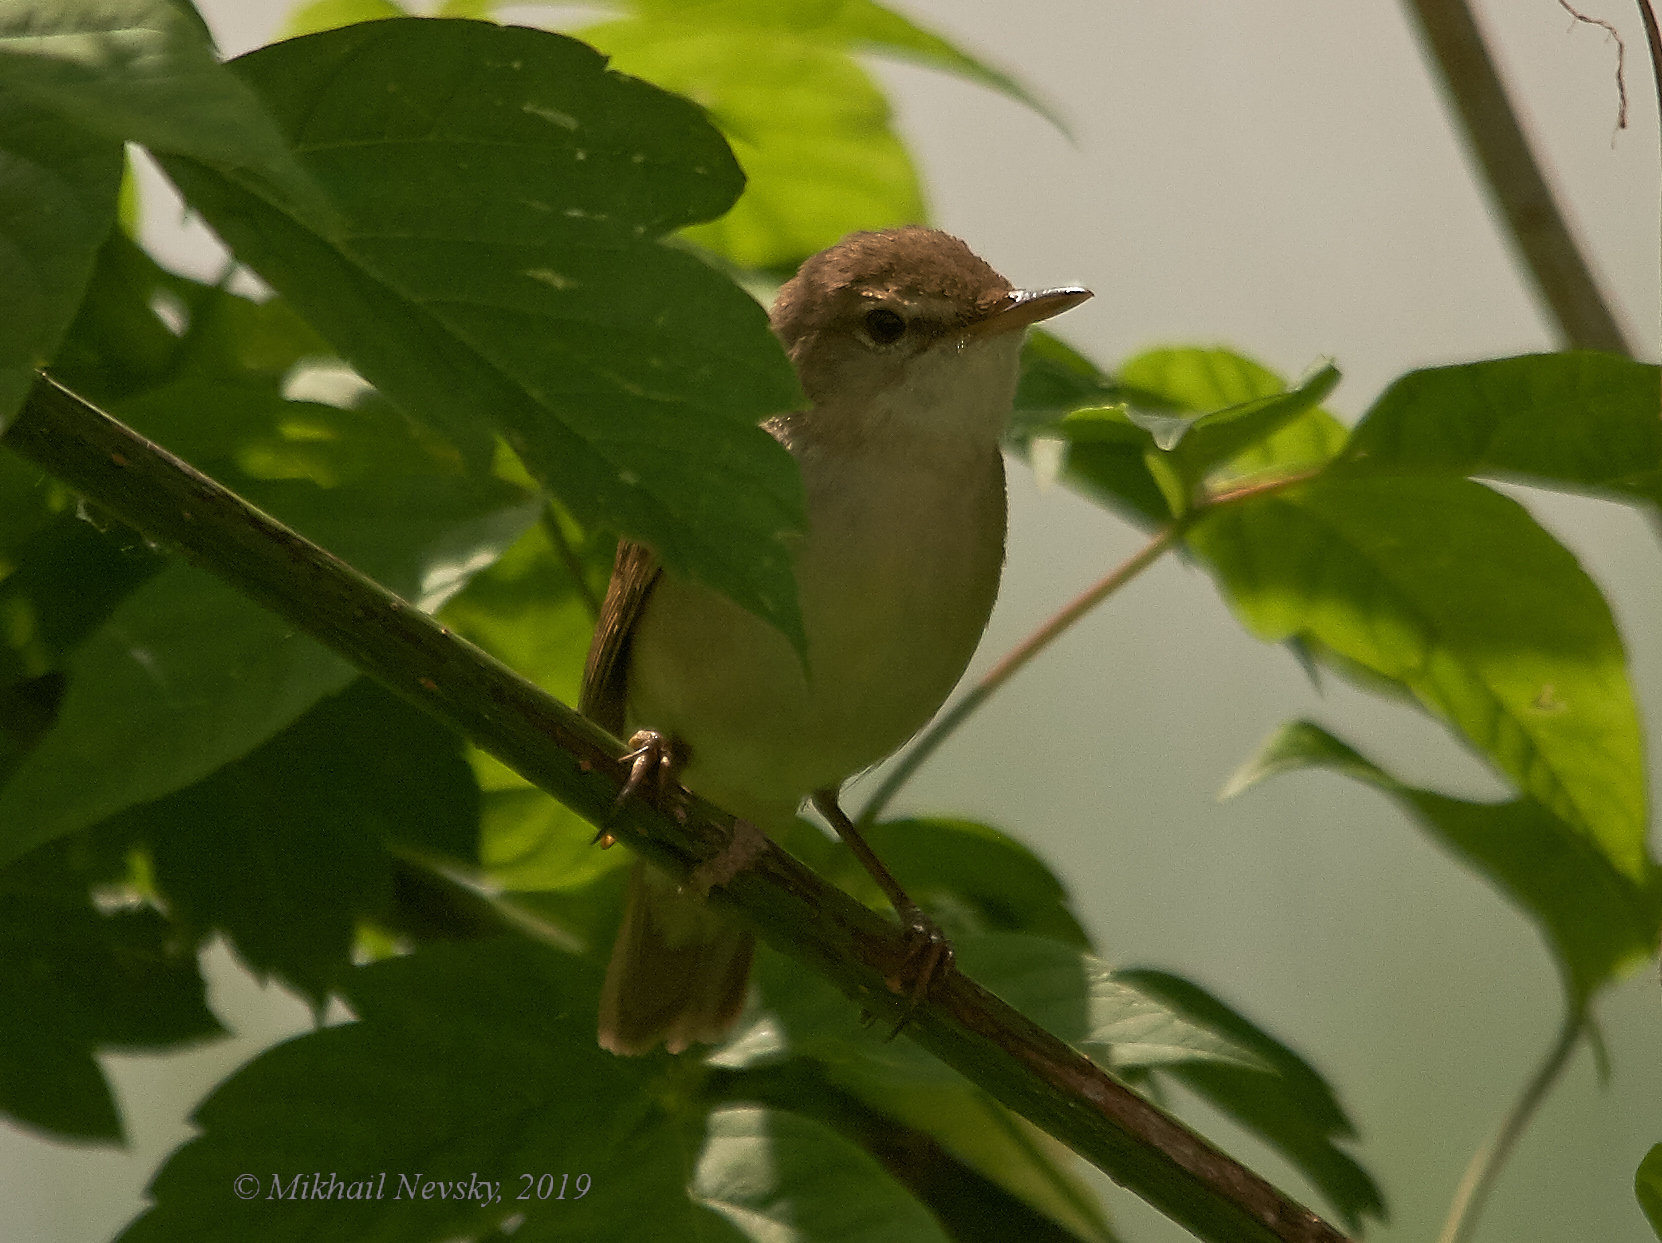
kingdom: Animalia
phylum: Chordata
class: Aves
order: Passeriformes
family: Acrocephalidae
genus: Acrocephalus
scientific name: Acrocephalus palustris
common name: Marsh warbler
